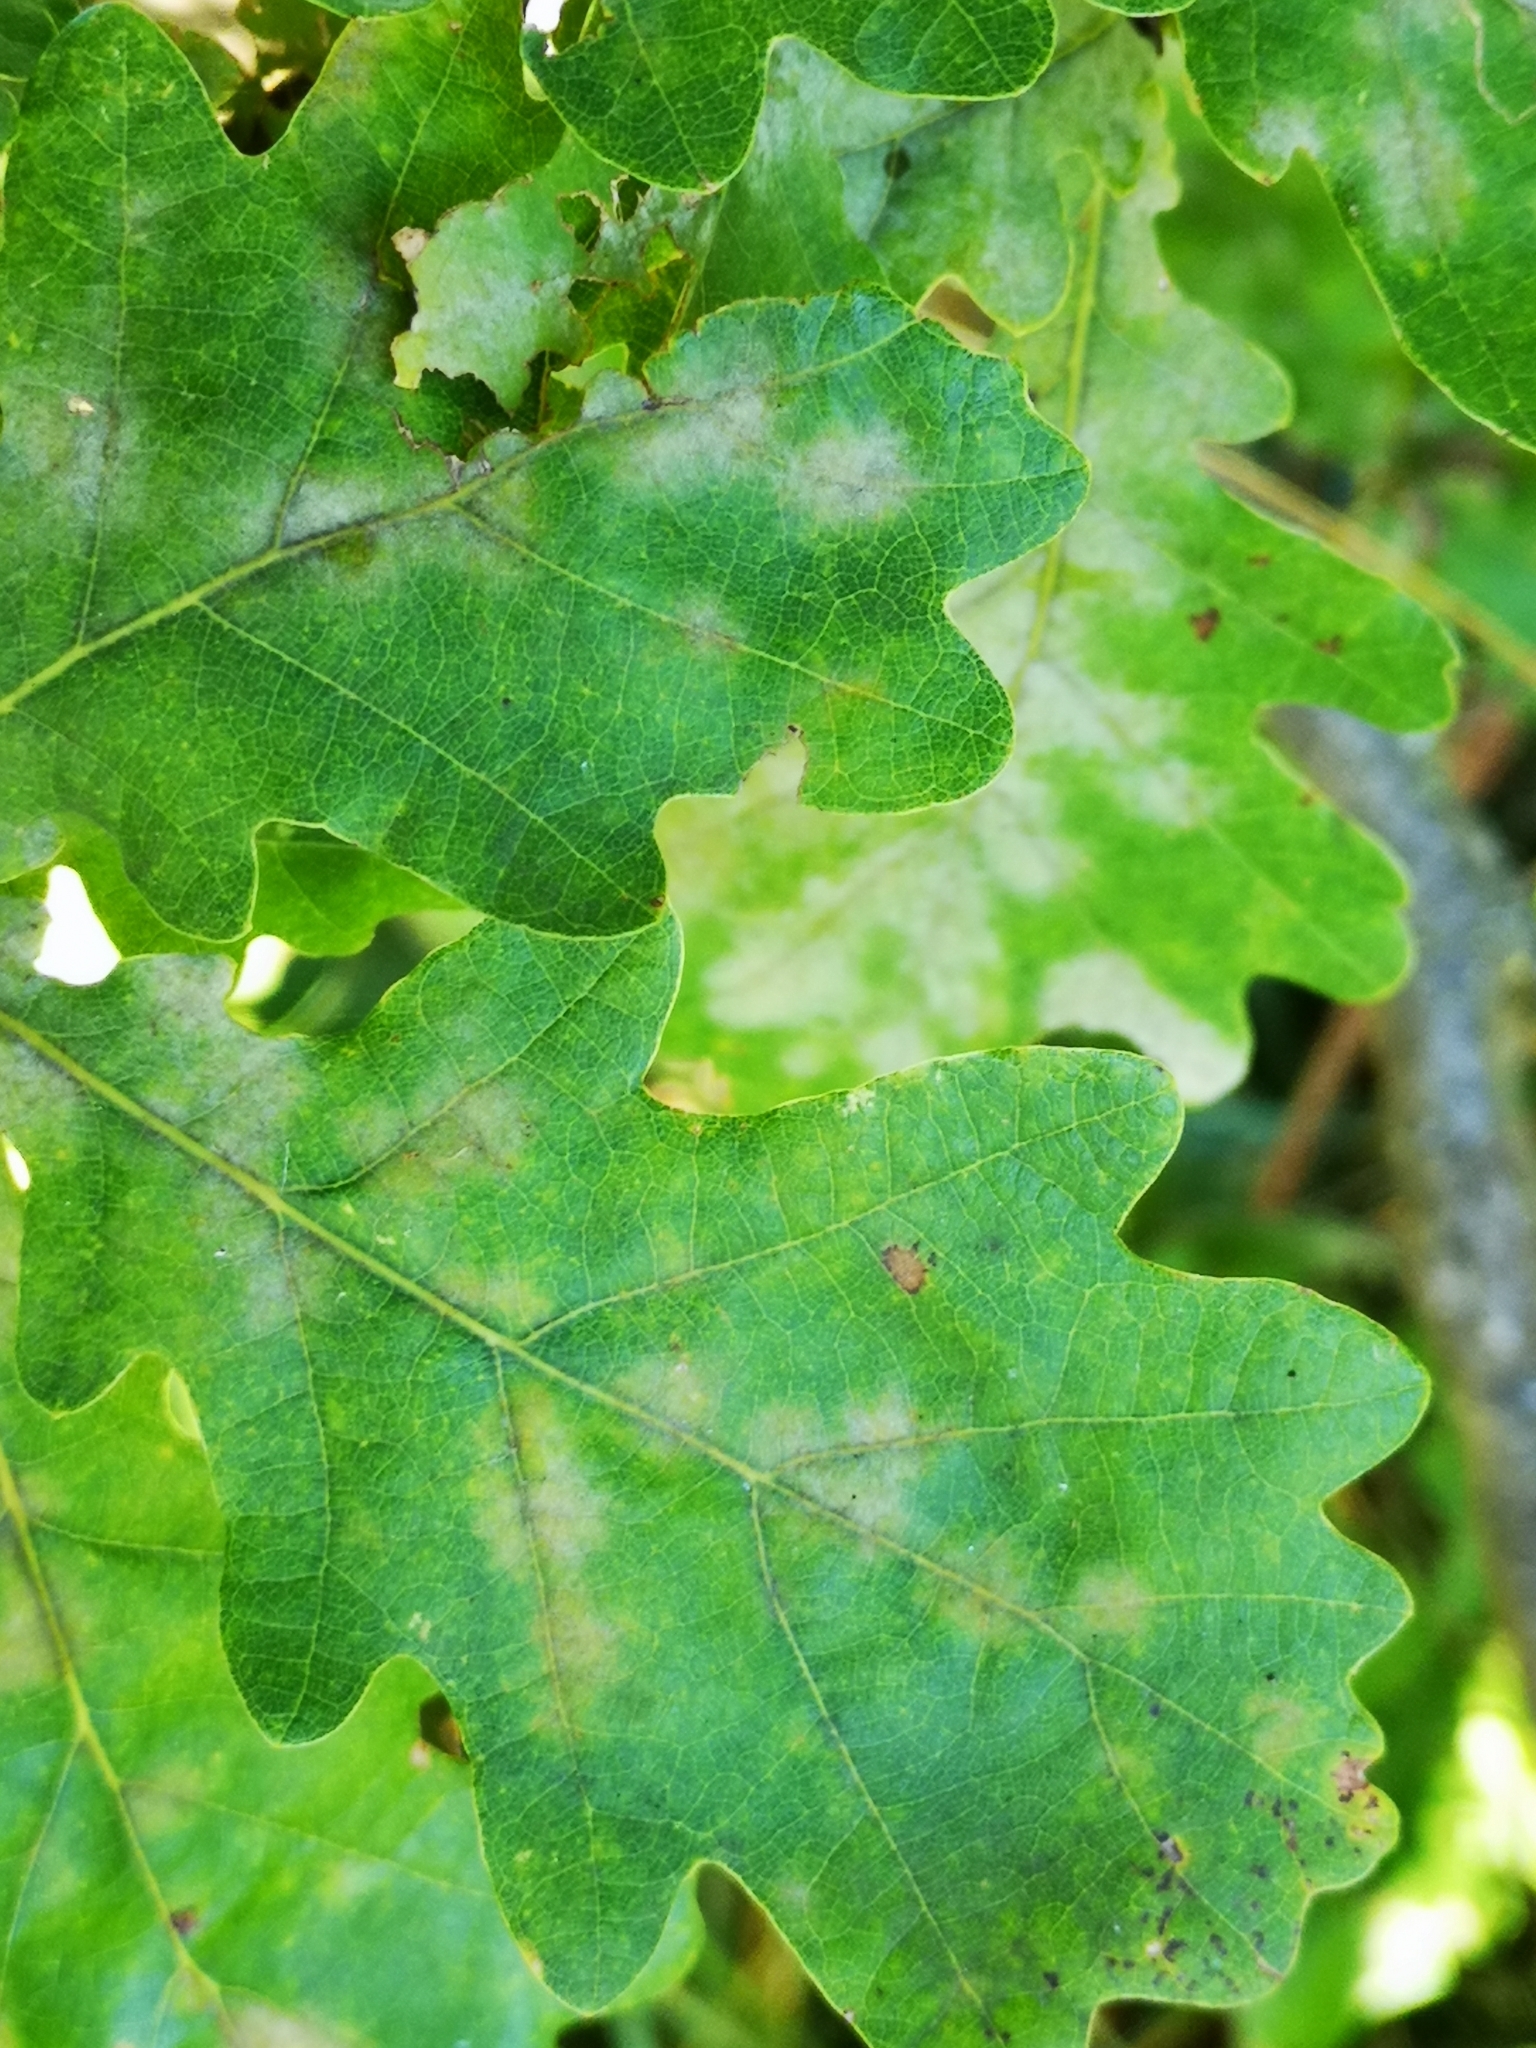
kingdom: Animalia
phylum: Arthropoda
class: Insecta
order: Hymenoptera
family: Cynipidae
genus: Andricus
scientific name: Andricus kollari
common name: Marble gall
